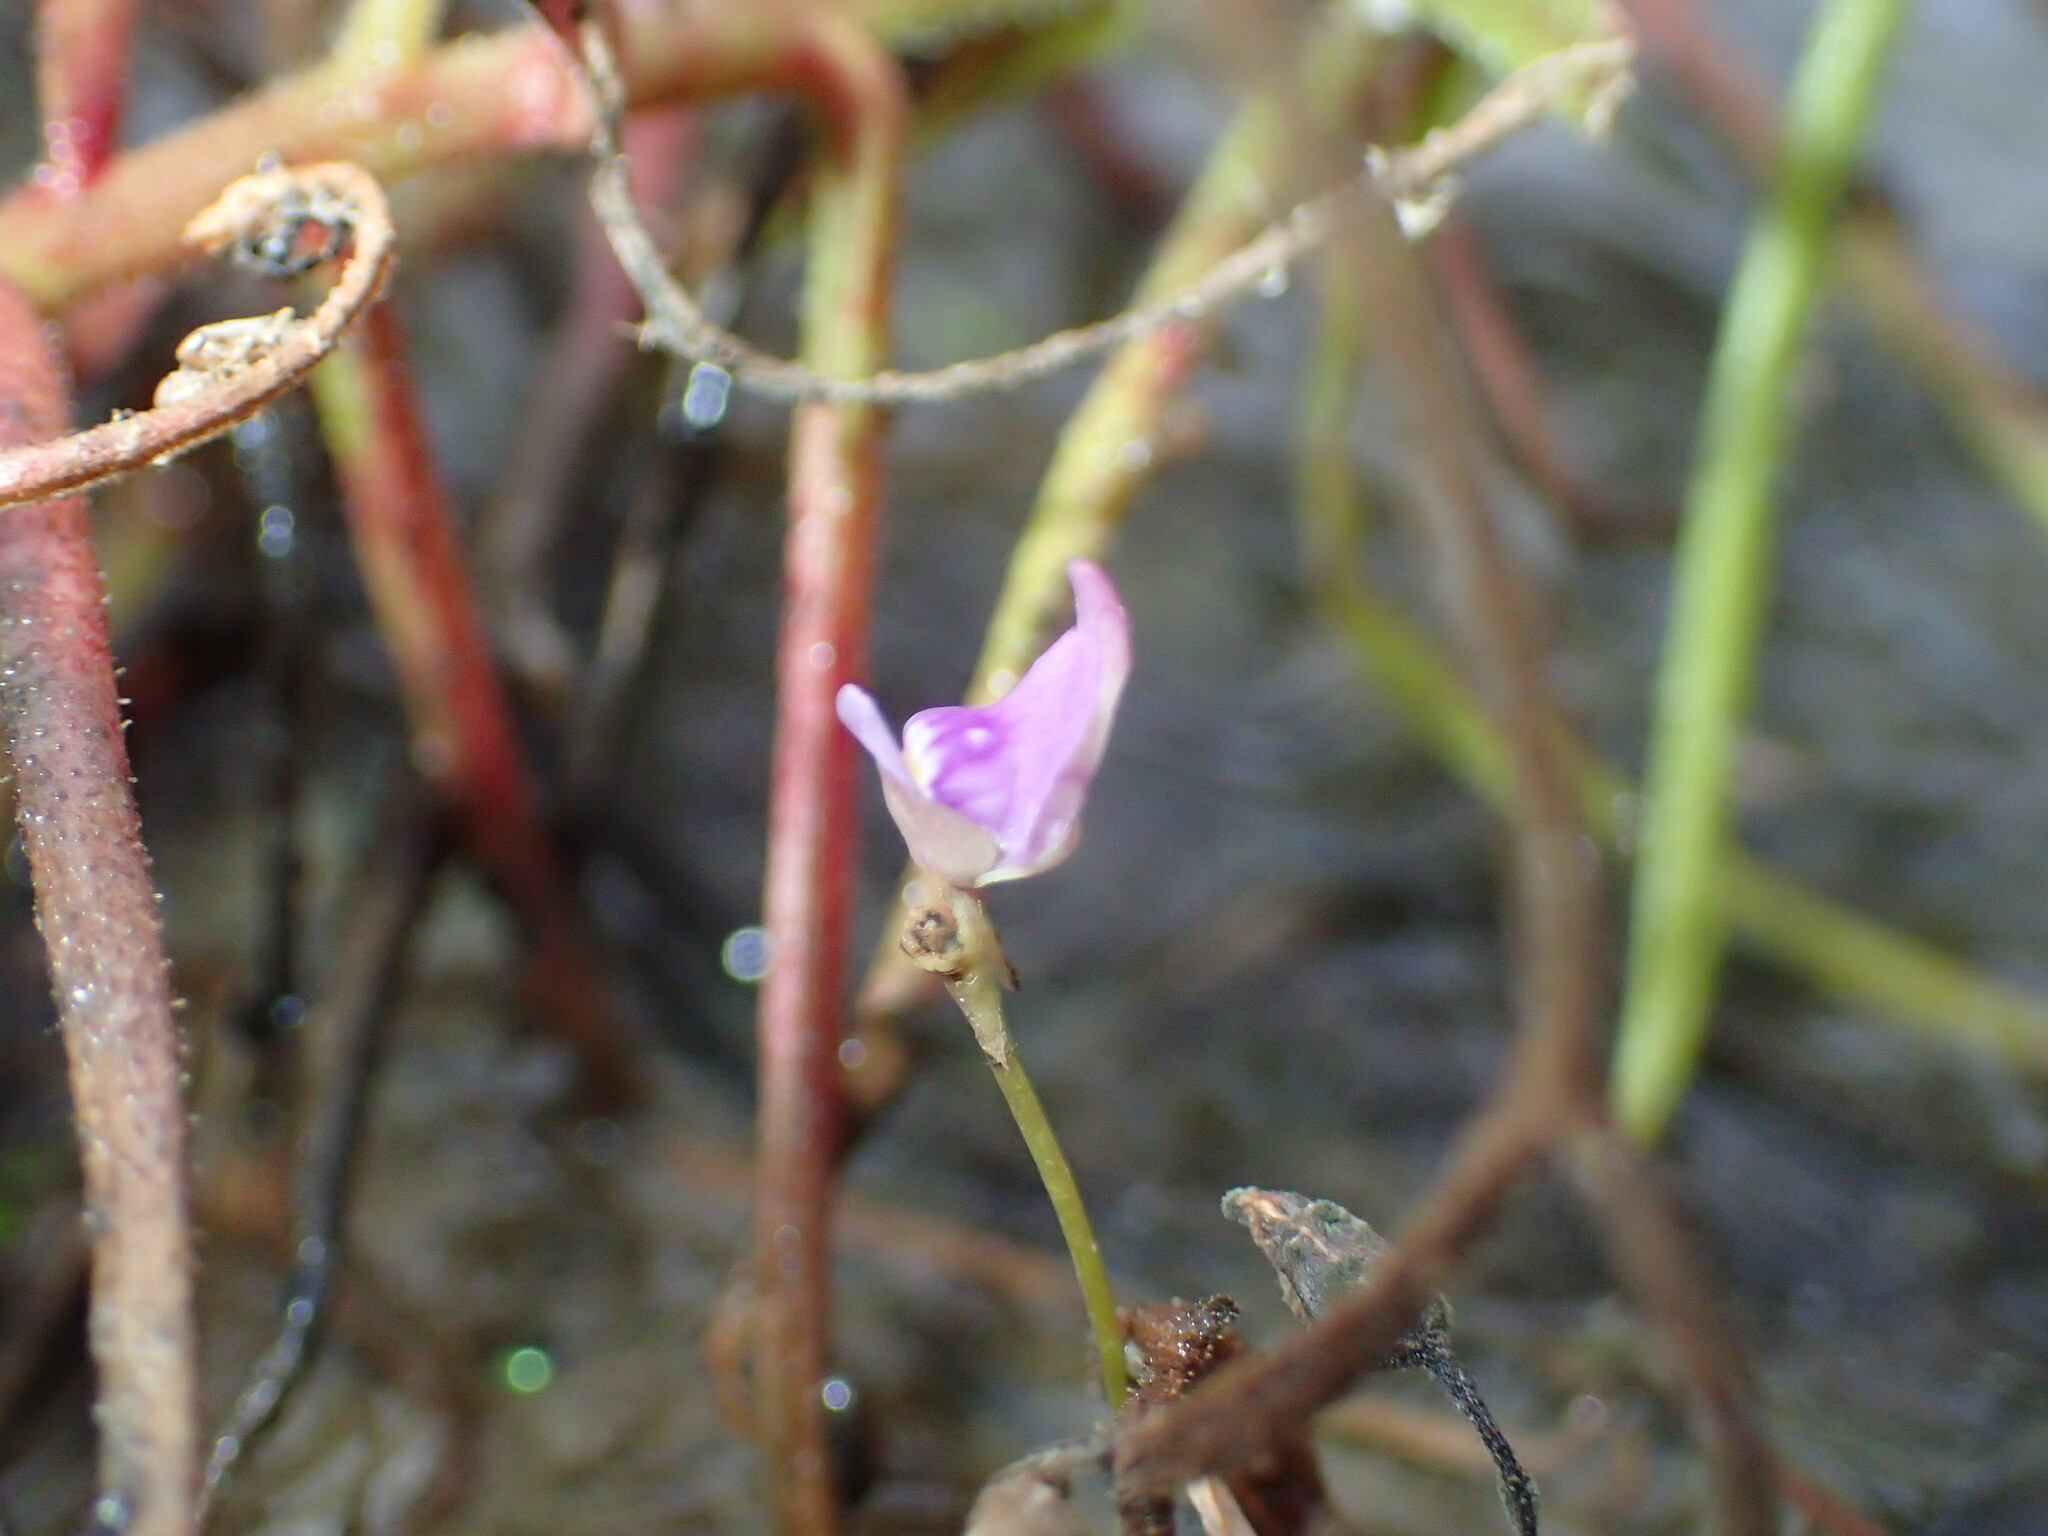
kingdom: Plantae
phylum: Tracheophyta
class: Magnoliopsida
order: Lamiales
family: Lentibulariaceae
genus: Utricularia
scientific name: Utricularia caerulea
